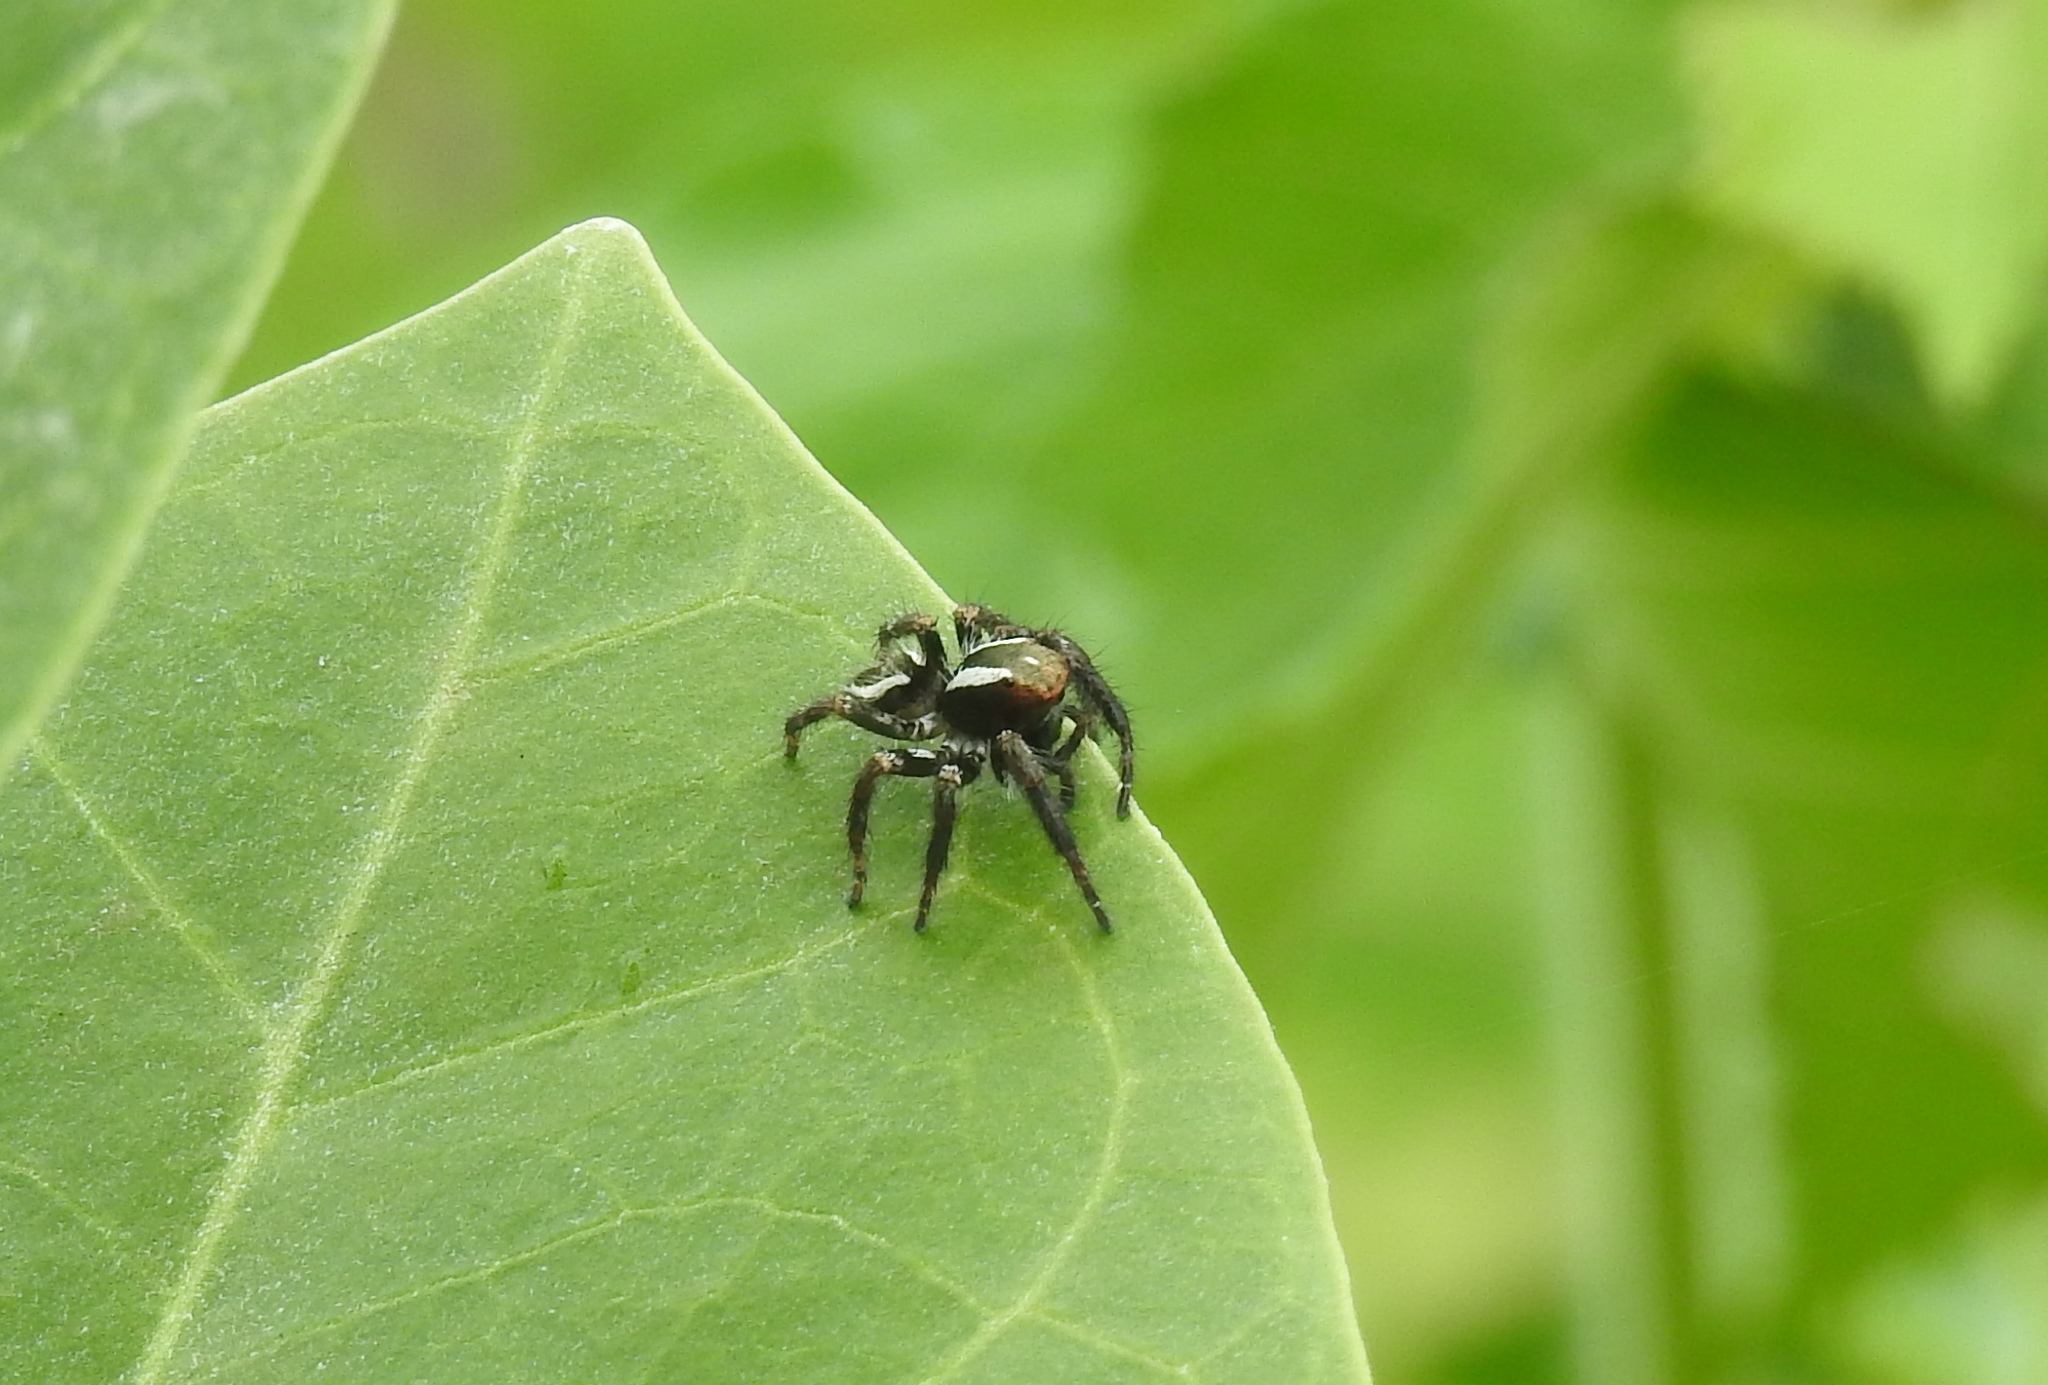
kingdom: Animalia
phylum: Arthropoda
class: Arachnida
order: Araneae
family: Salticidae
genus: Carrhotus
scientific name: Carrhotus viduus
